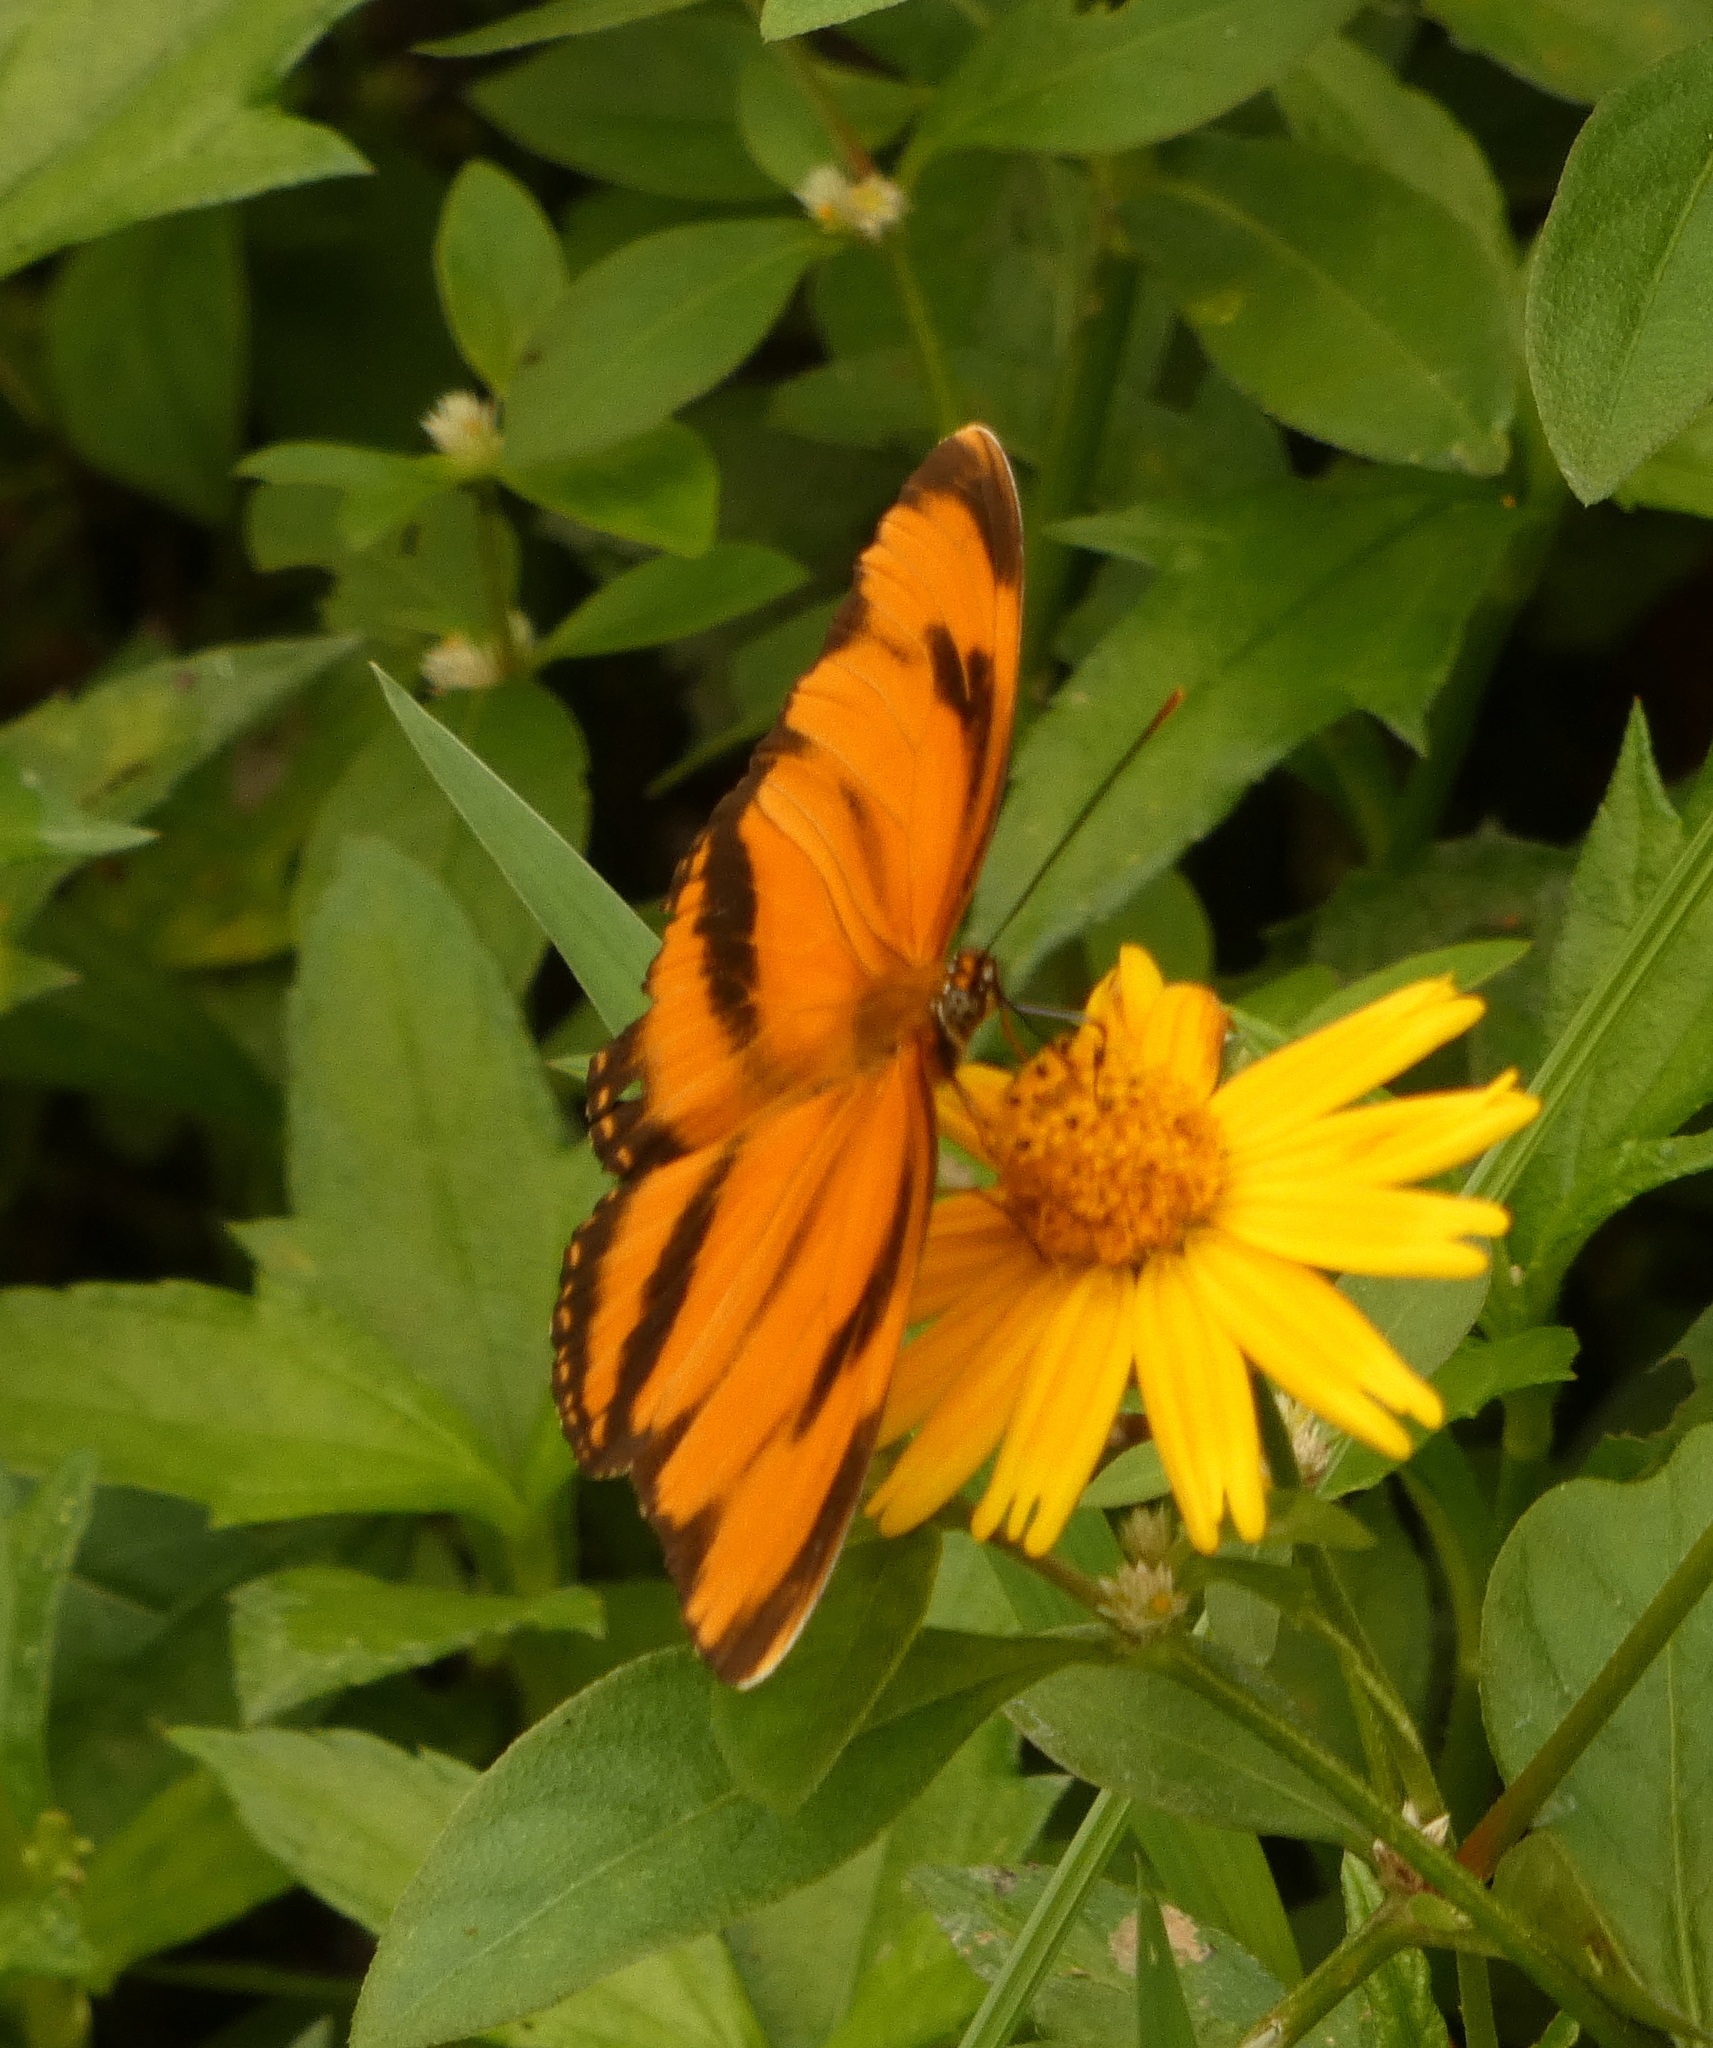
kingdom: Animalia
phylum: Arthropoda
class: Insecta
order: Lepidoptera
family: Nymphalidae
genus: Dryadula
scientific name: Dryadula phaetusa
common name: Banded orange heliconian
